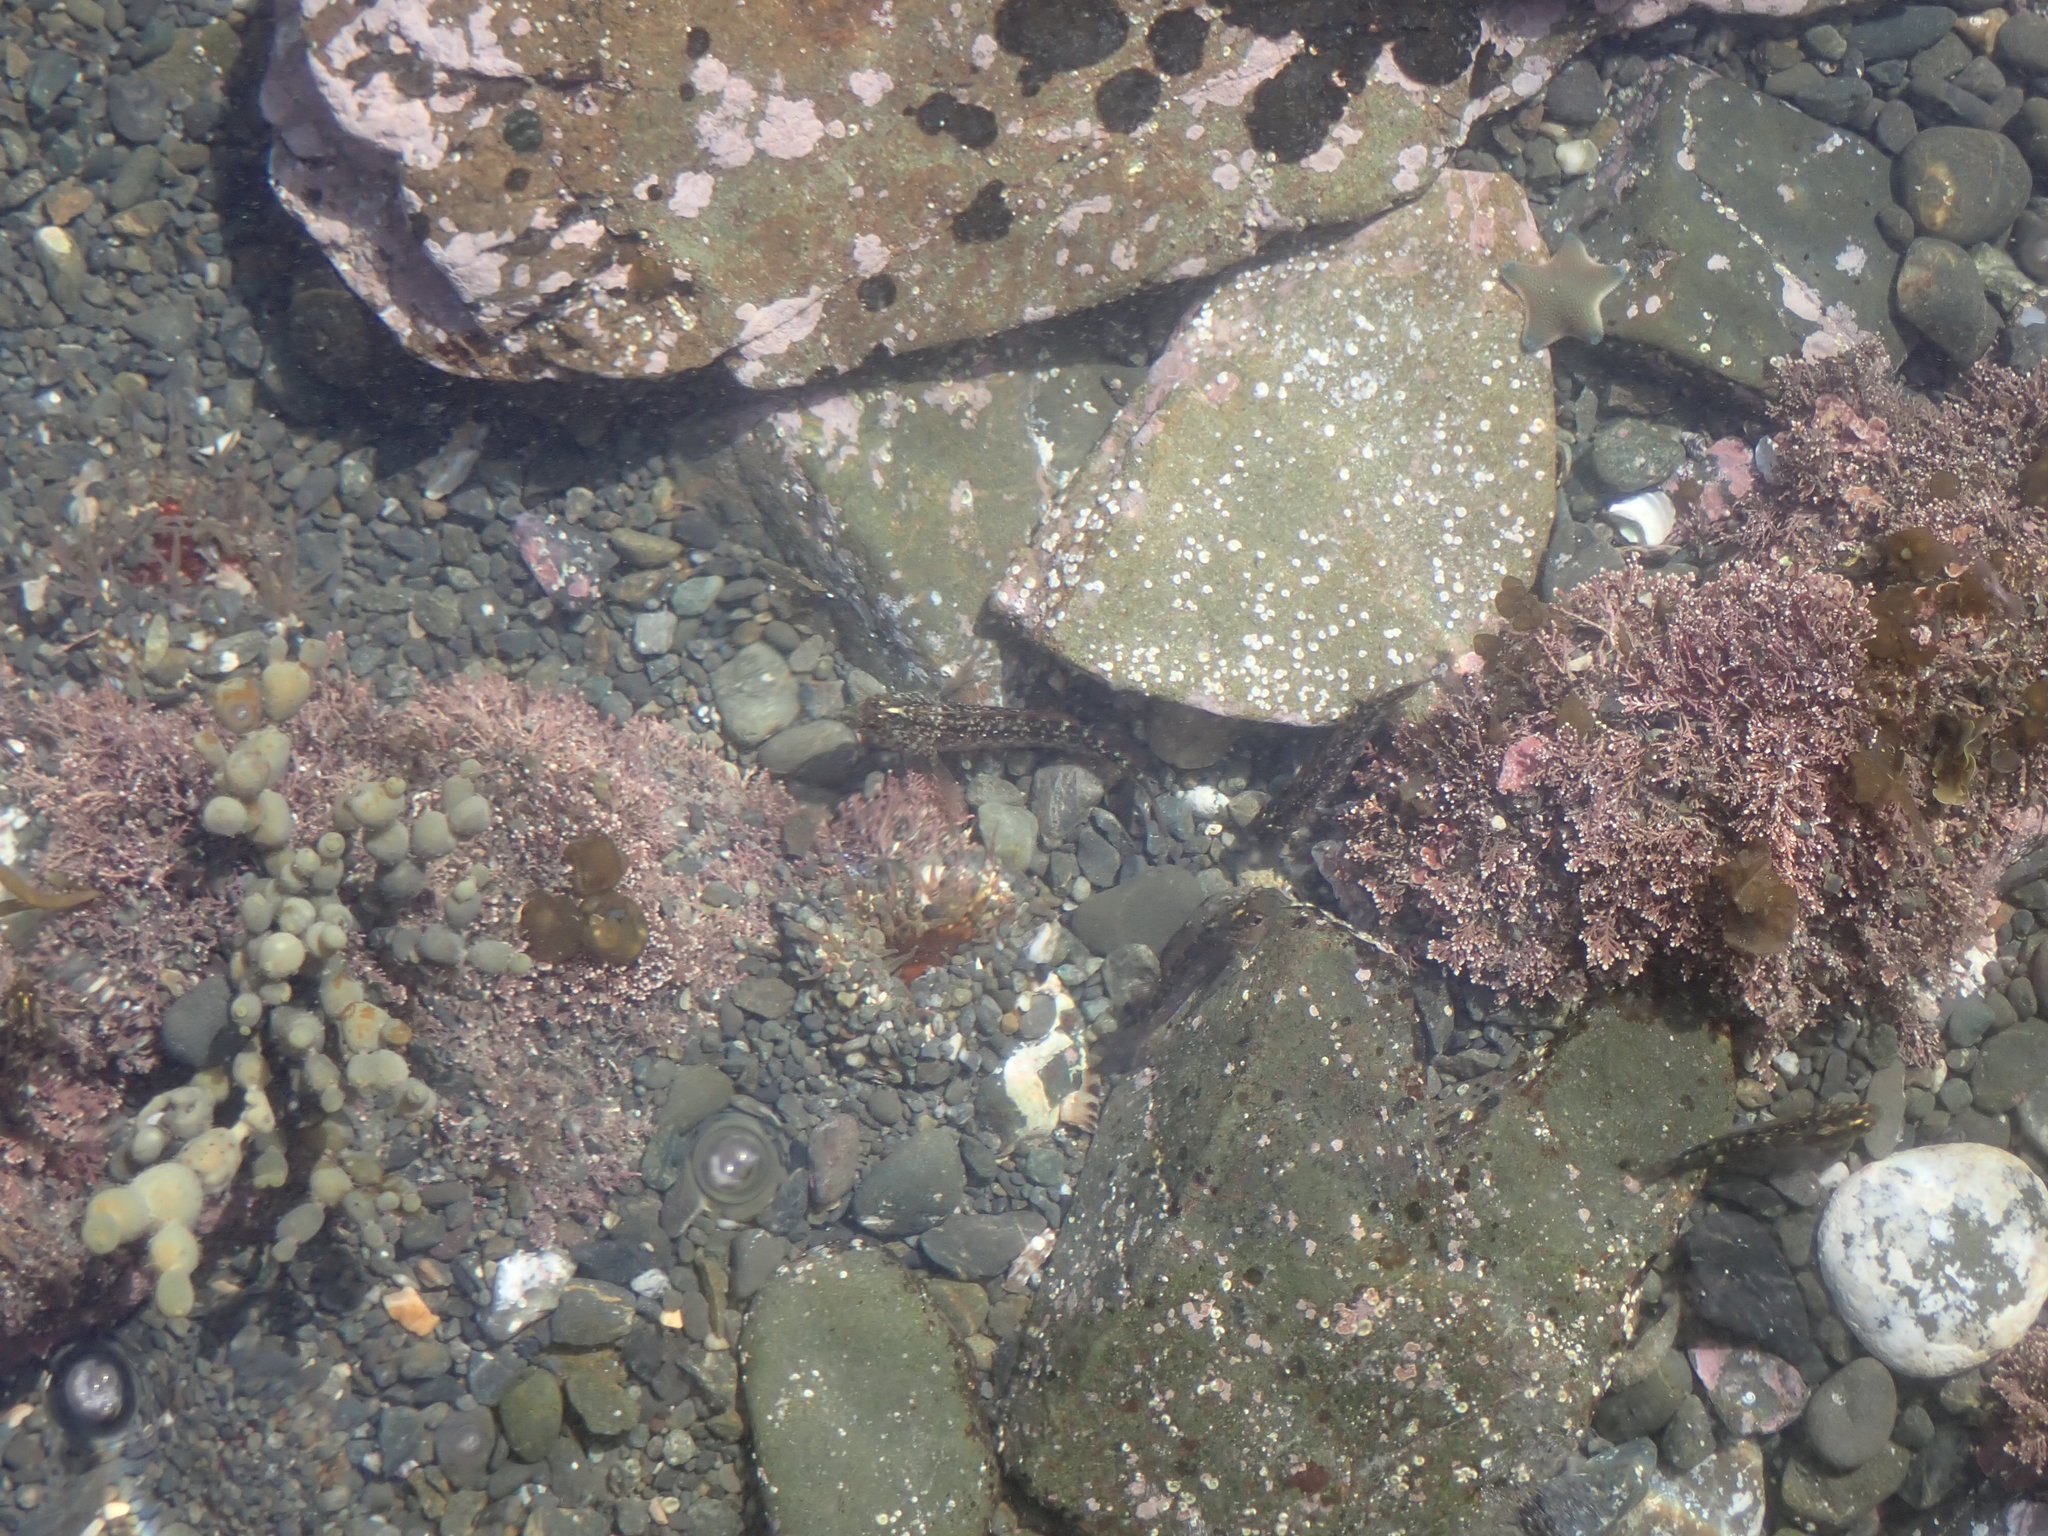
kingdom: Animalia
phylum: Chordata
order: Perciformes
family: Tripterygiidae
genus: Forsterygion
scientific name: Forsterygion lapillum
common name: Common triplefin
